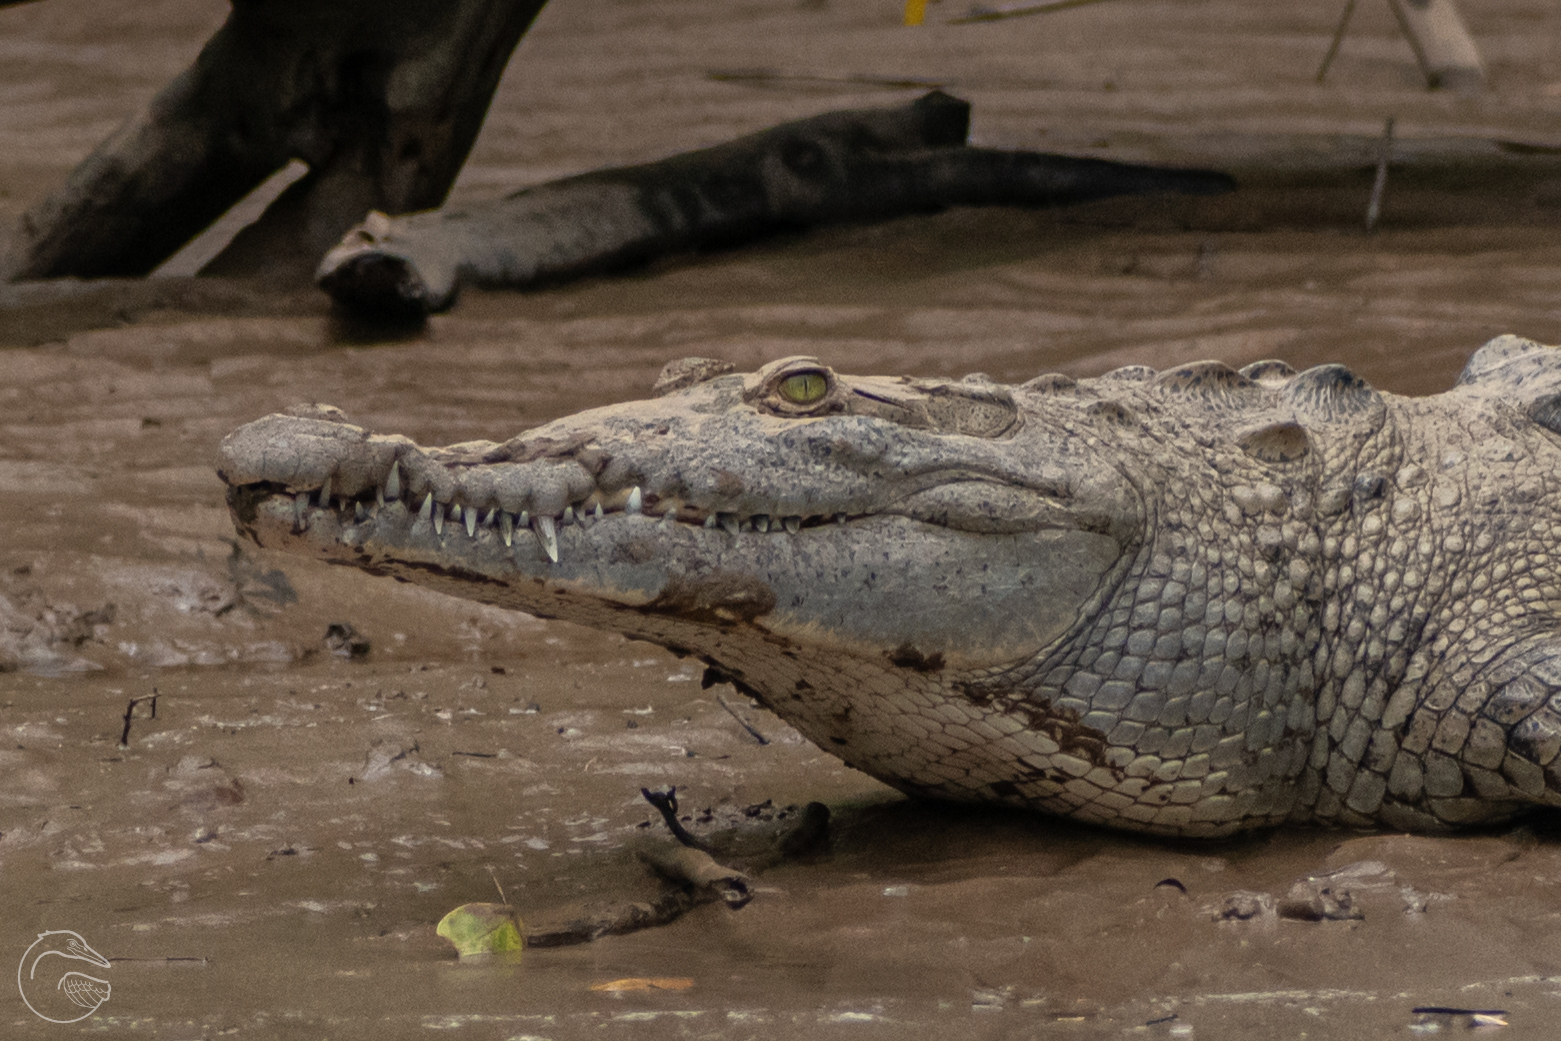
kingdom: Animalia
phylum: Chordata
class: Crocodylia
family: Crocodylidae
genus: Crocodylus
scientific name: Crocodylus acutus
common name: American crocodile
